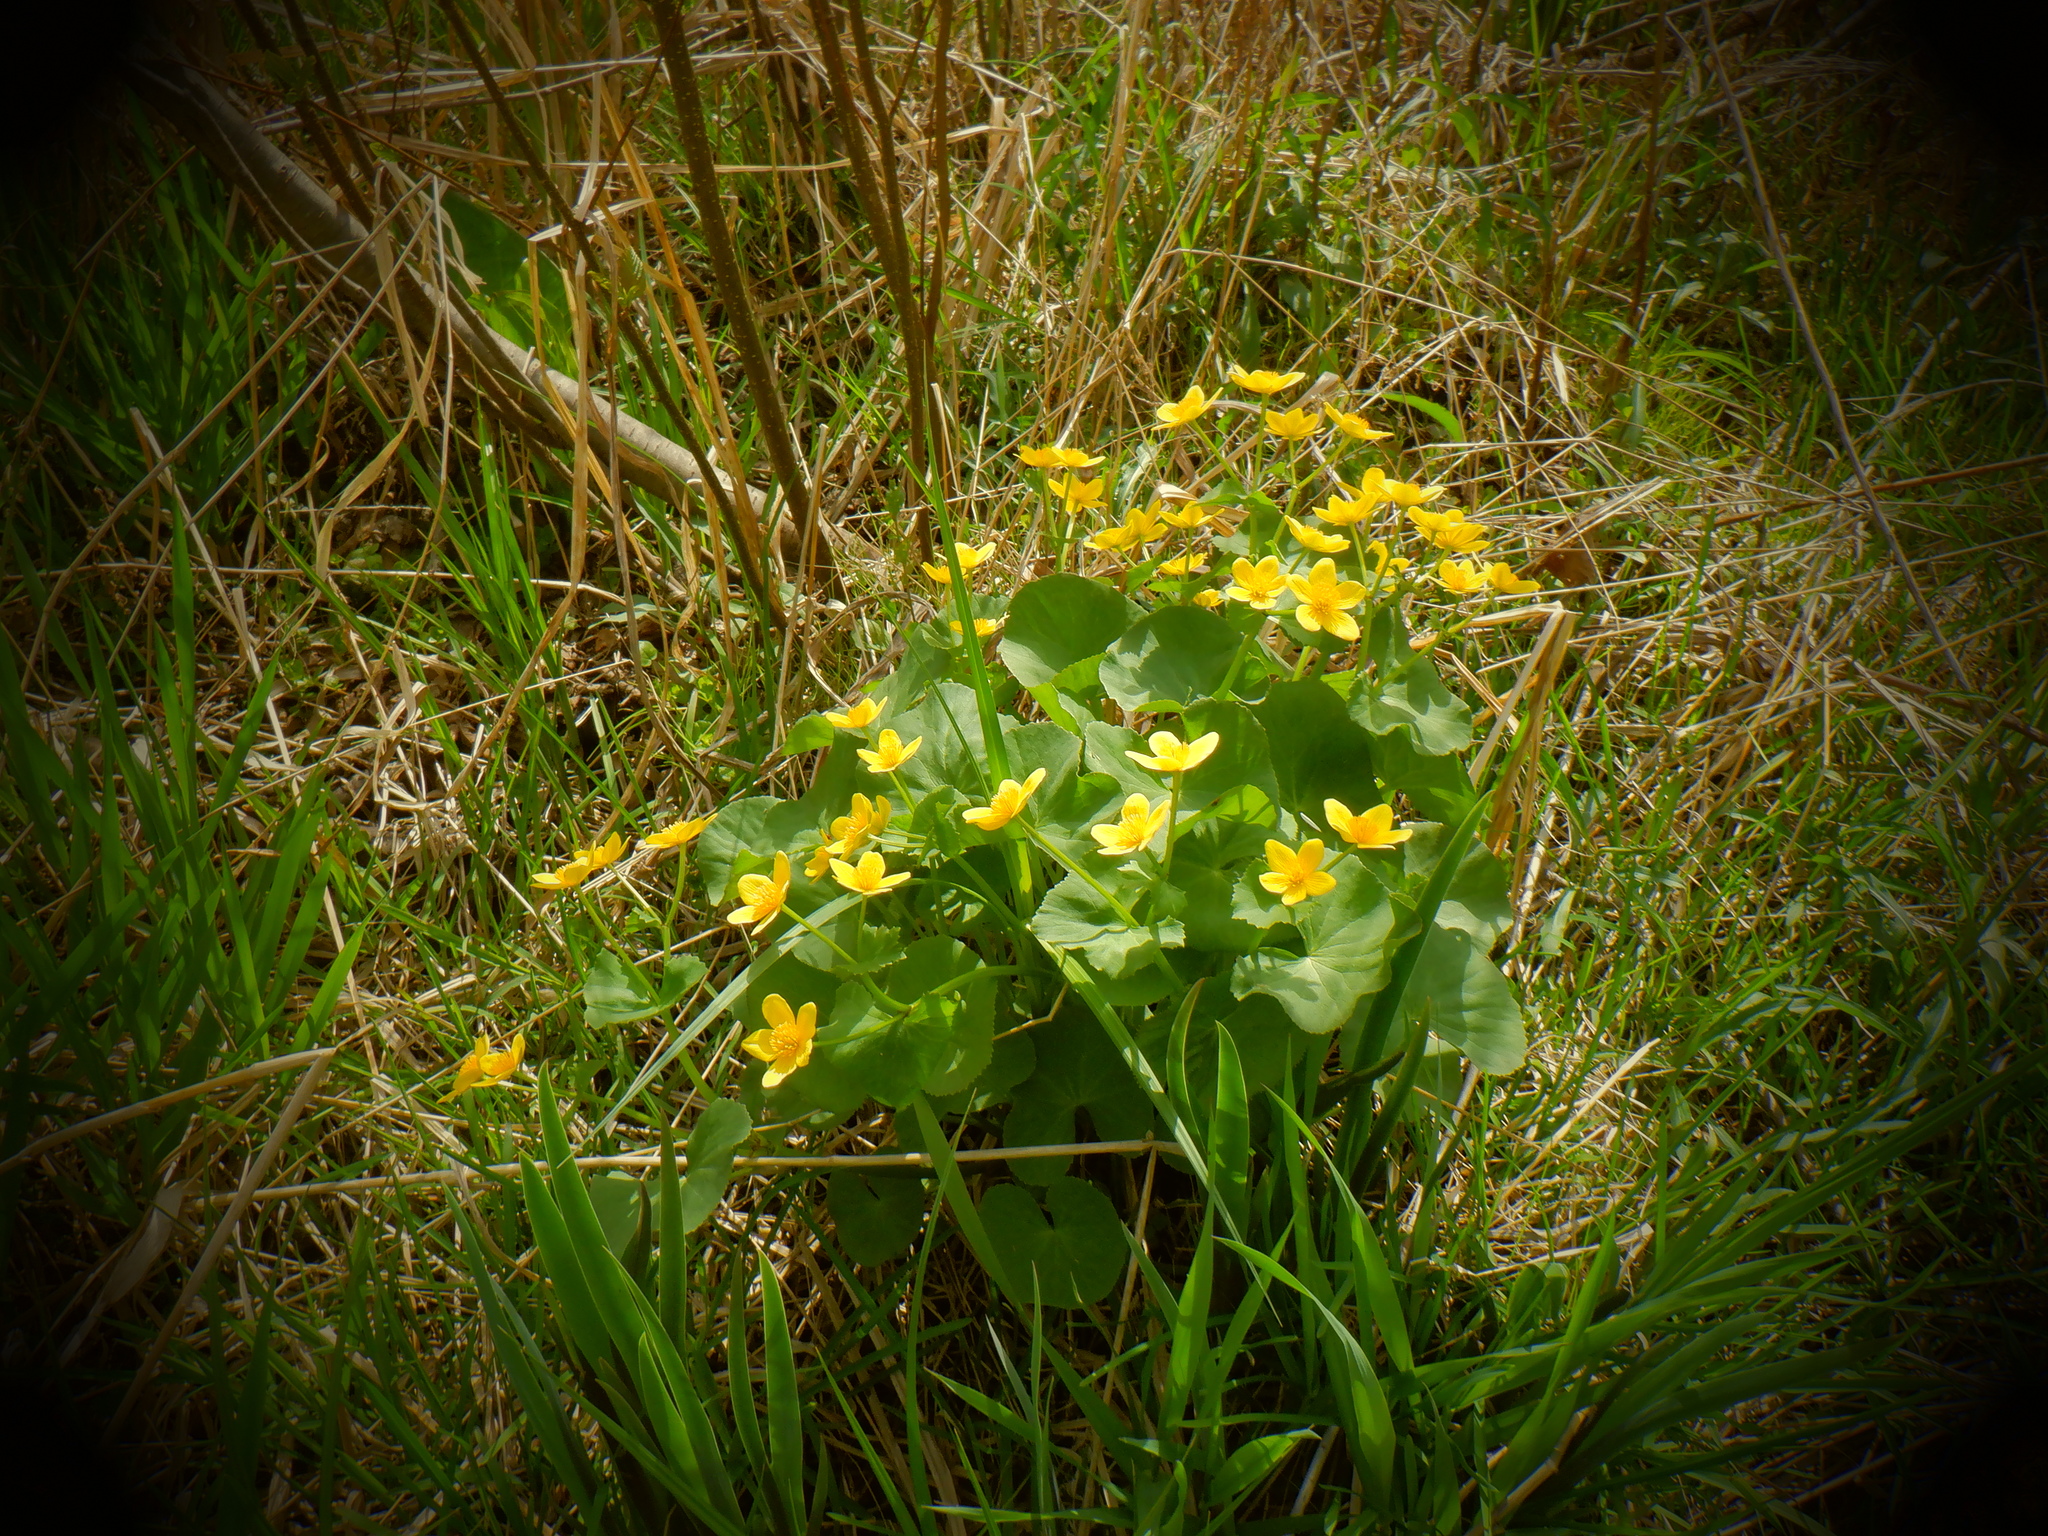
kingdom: Plantae
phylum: Tracheophyta
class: Magnoliopsida
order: Ranunculales
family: Ranunculaceae
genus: Caltha
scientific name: Caltha palustris
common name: Marsh marigold
